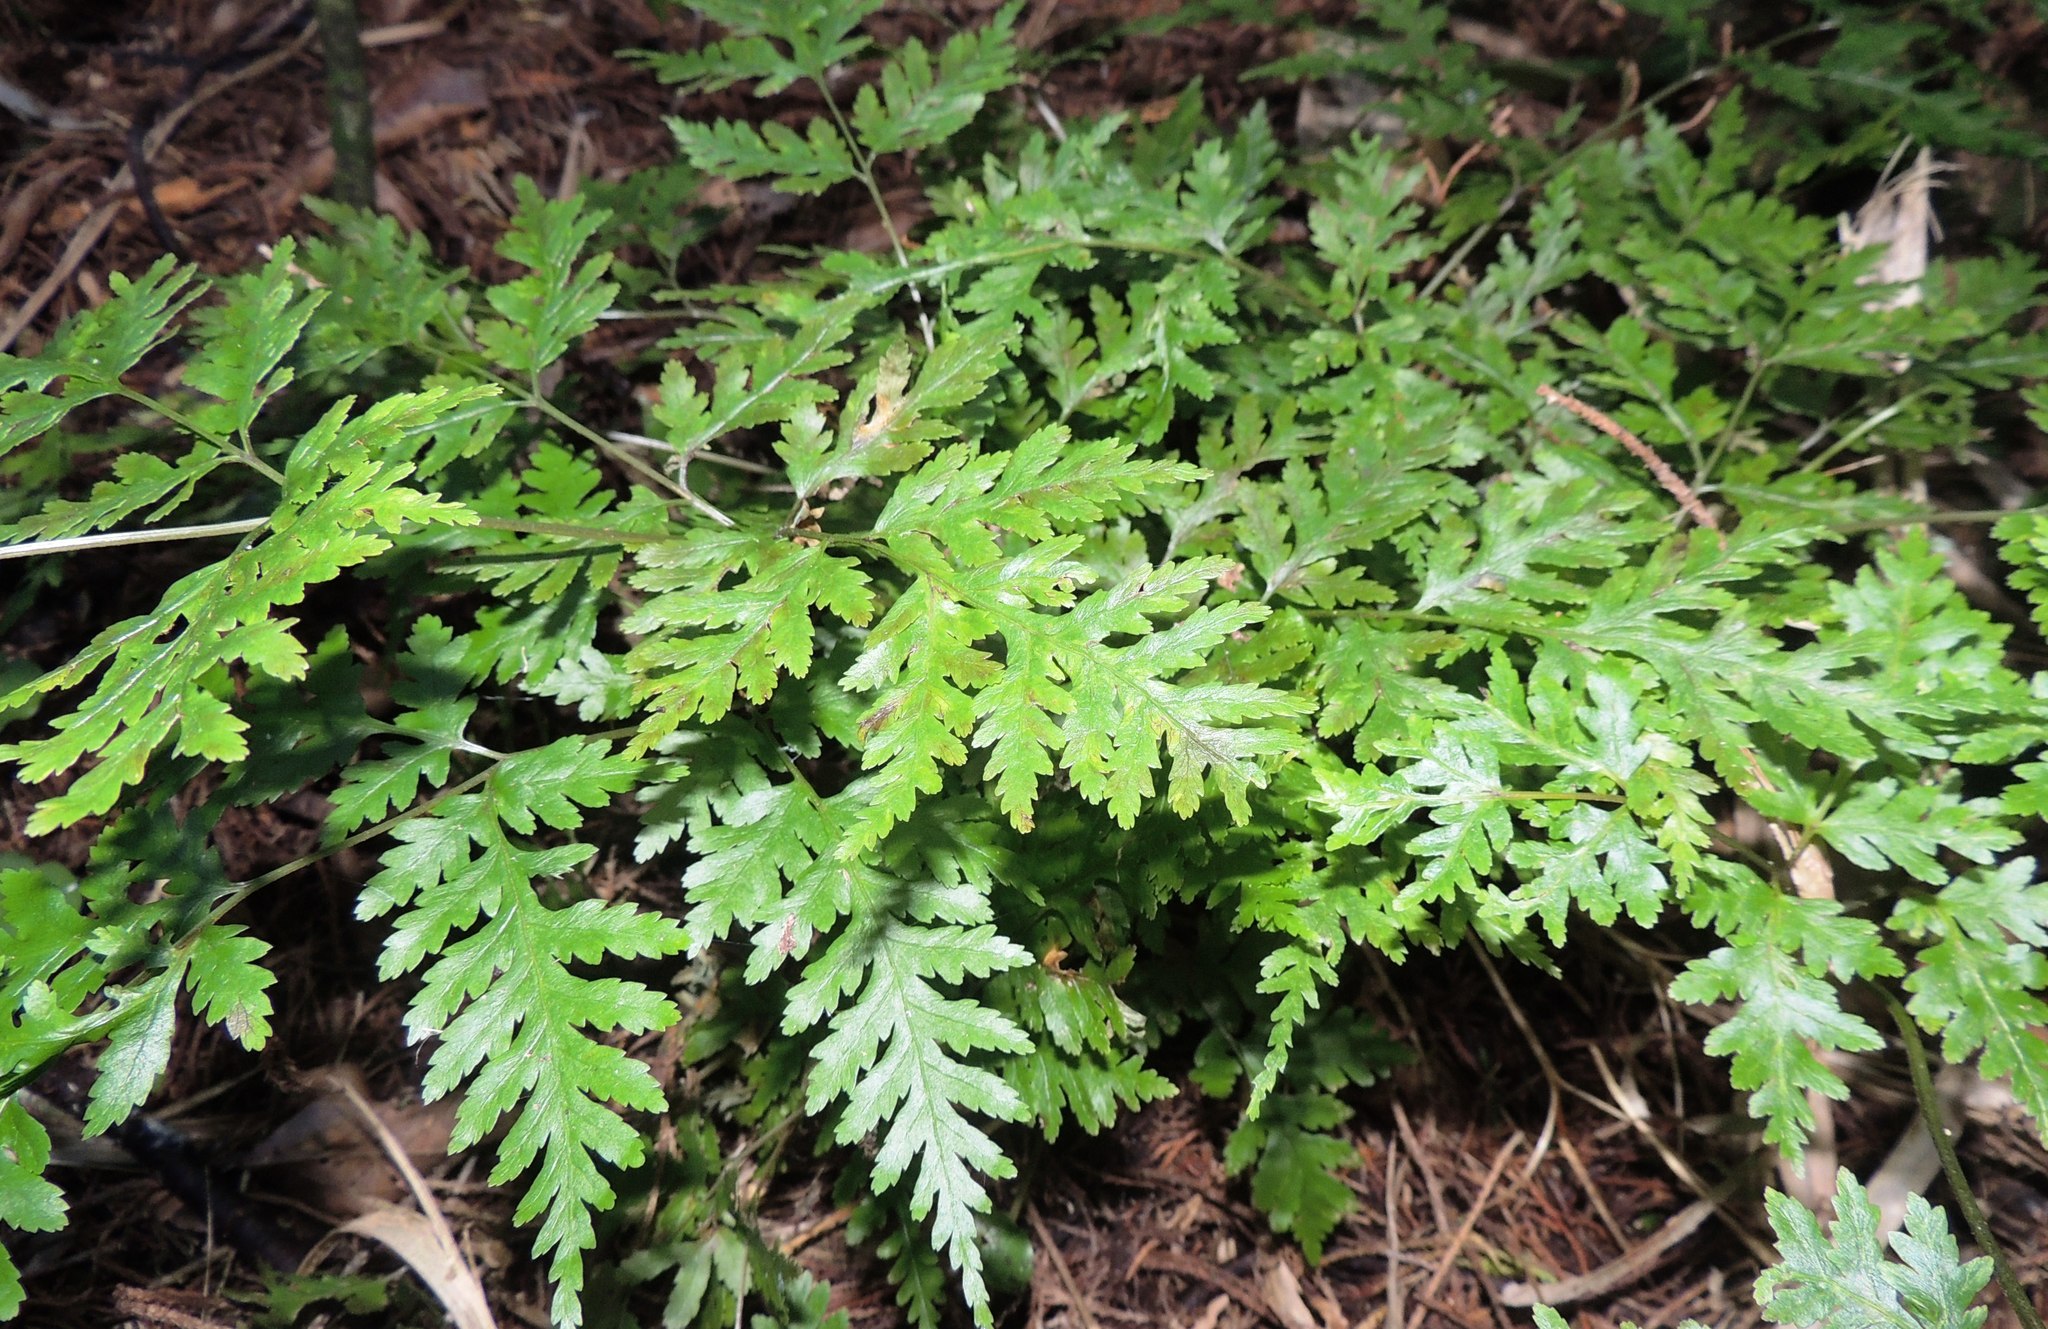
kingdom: Plantae
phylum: Tracheophyta
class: Polypodiopsida
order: Polypodiales
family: Pteridaceae
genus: Pteris
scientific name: Pteris macilenta
